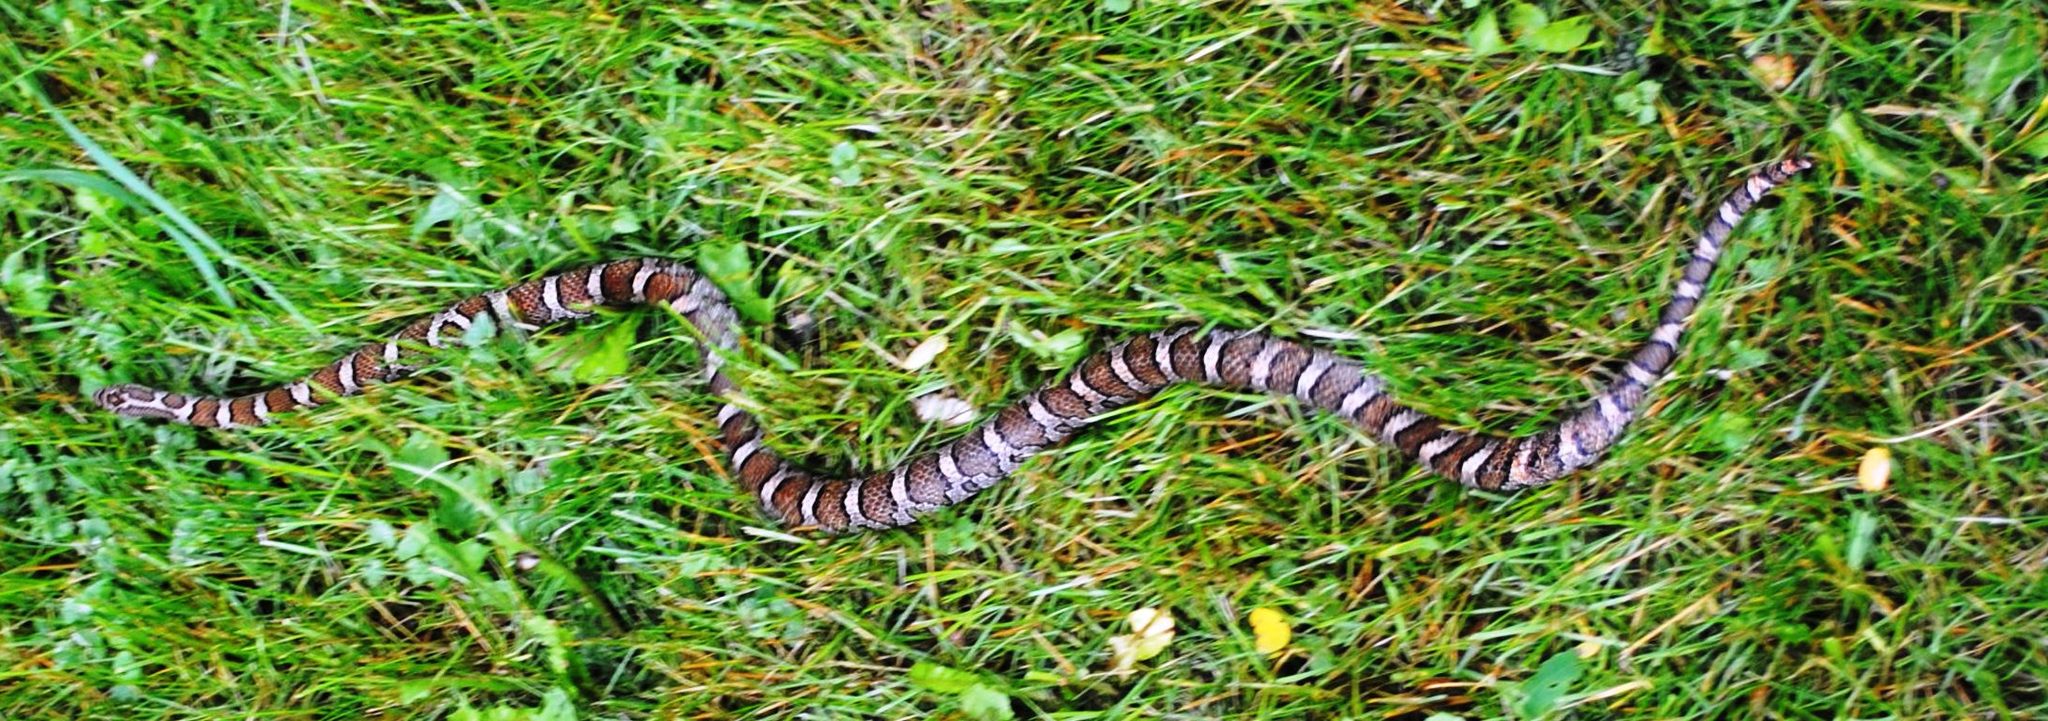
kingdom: Animalia
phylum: Chordata
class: Squamata
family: Colubridae
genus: Lampropeltis
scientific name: Lampropeltis triangulum
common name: Eastern milksnake
